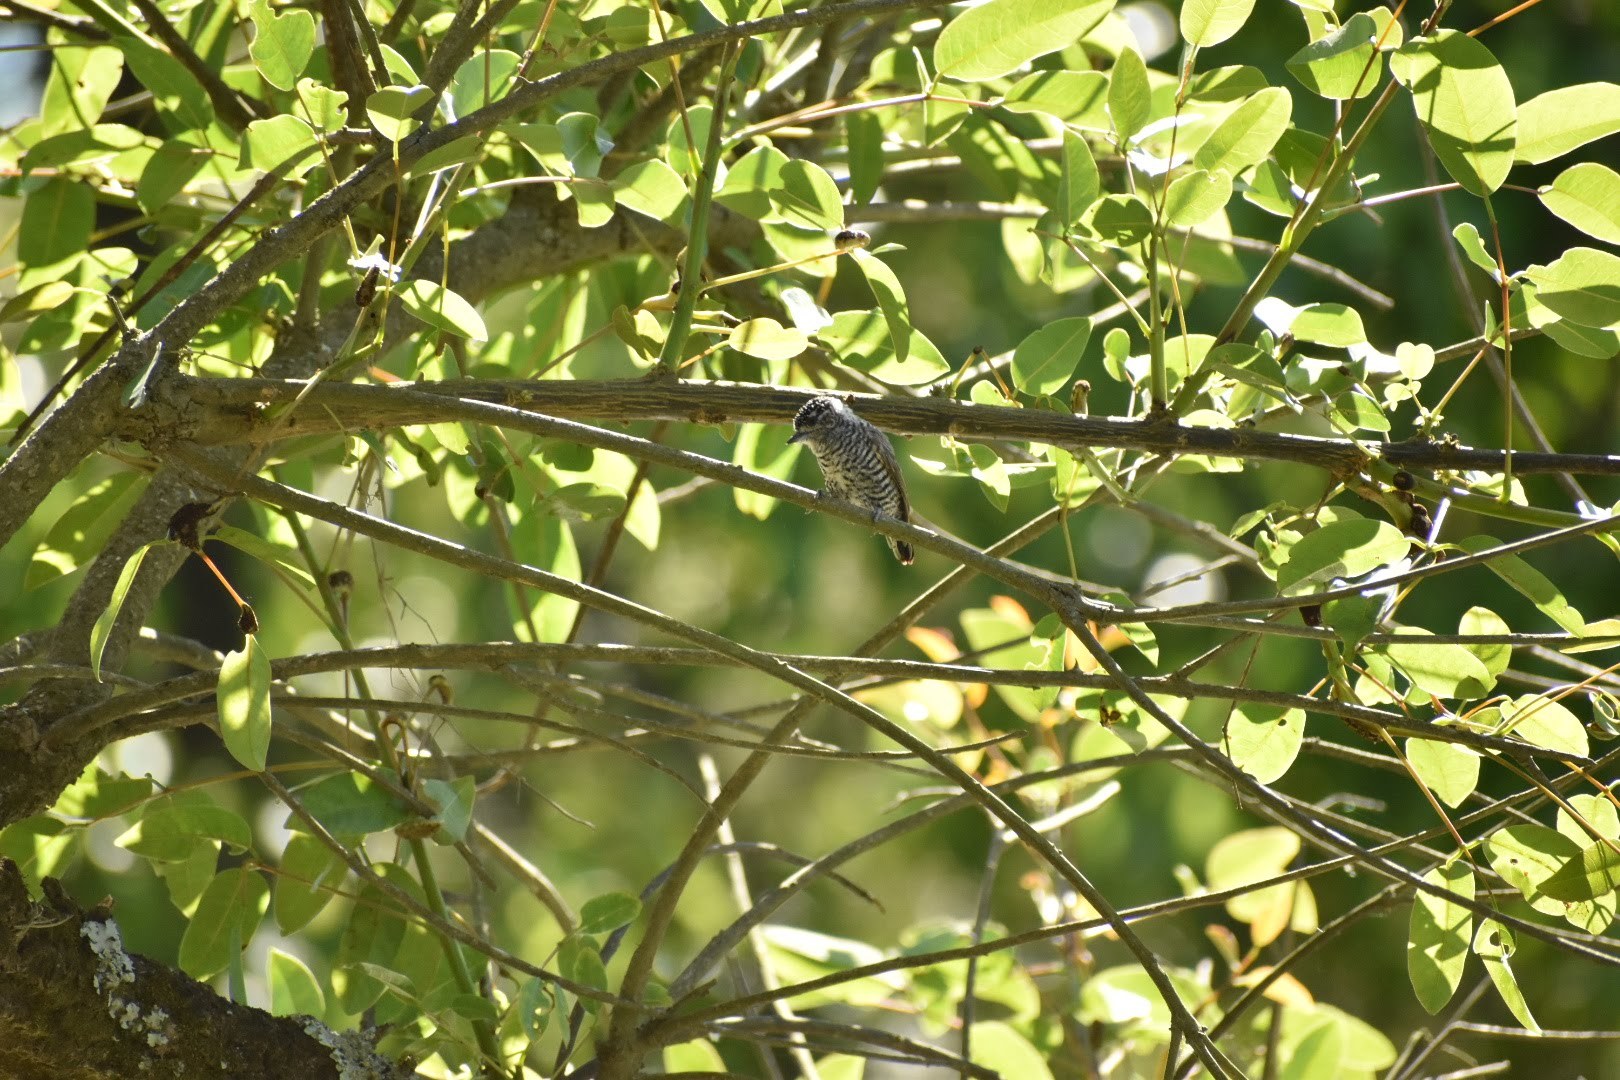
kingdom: Animalia
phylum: Chordata
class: Aves
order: Piciformes
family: Picidae
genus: Picumnus
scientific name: Picumnus cirratus
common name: White-barred piculet
